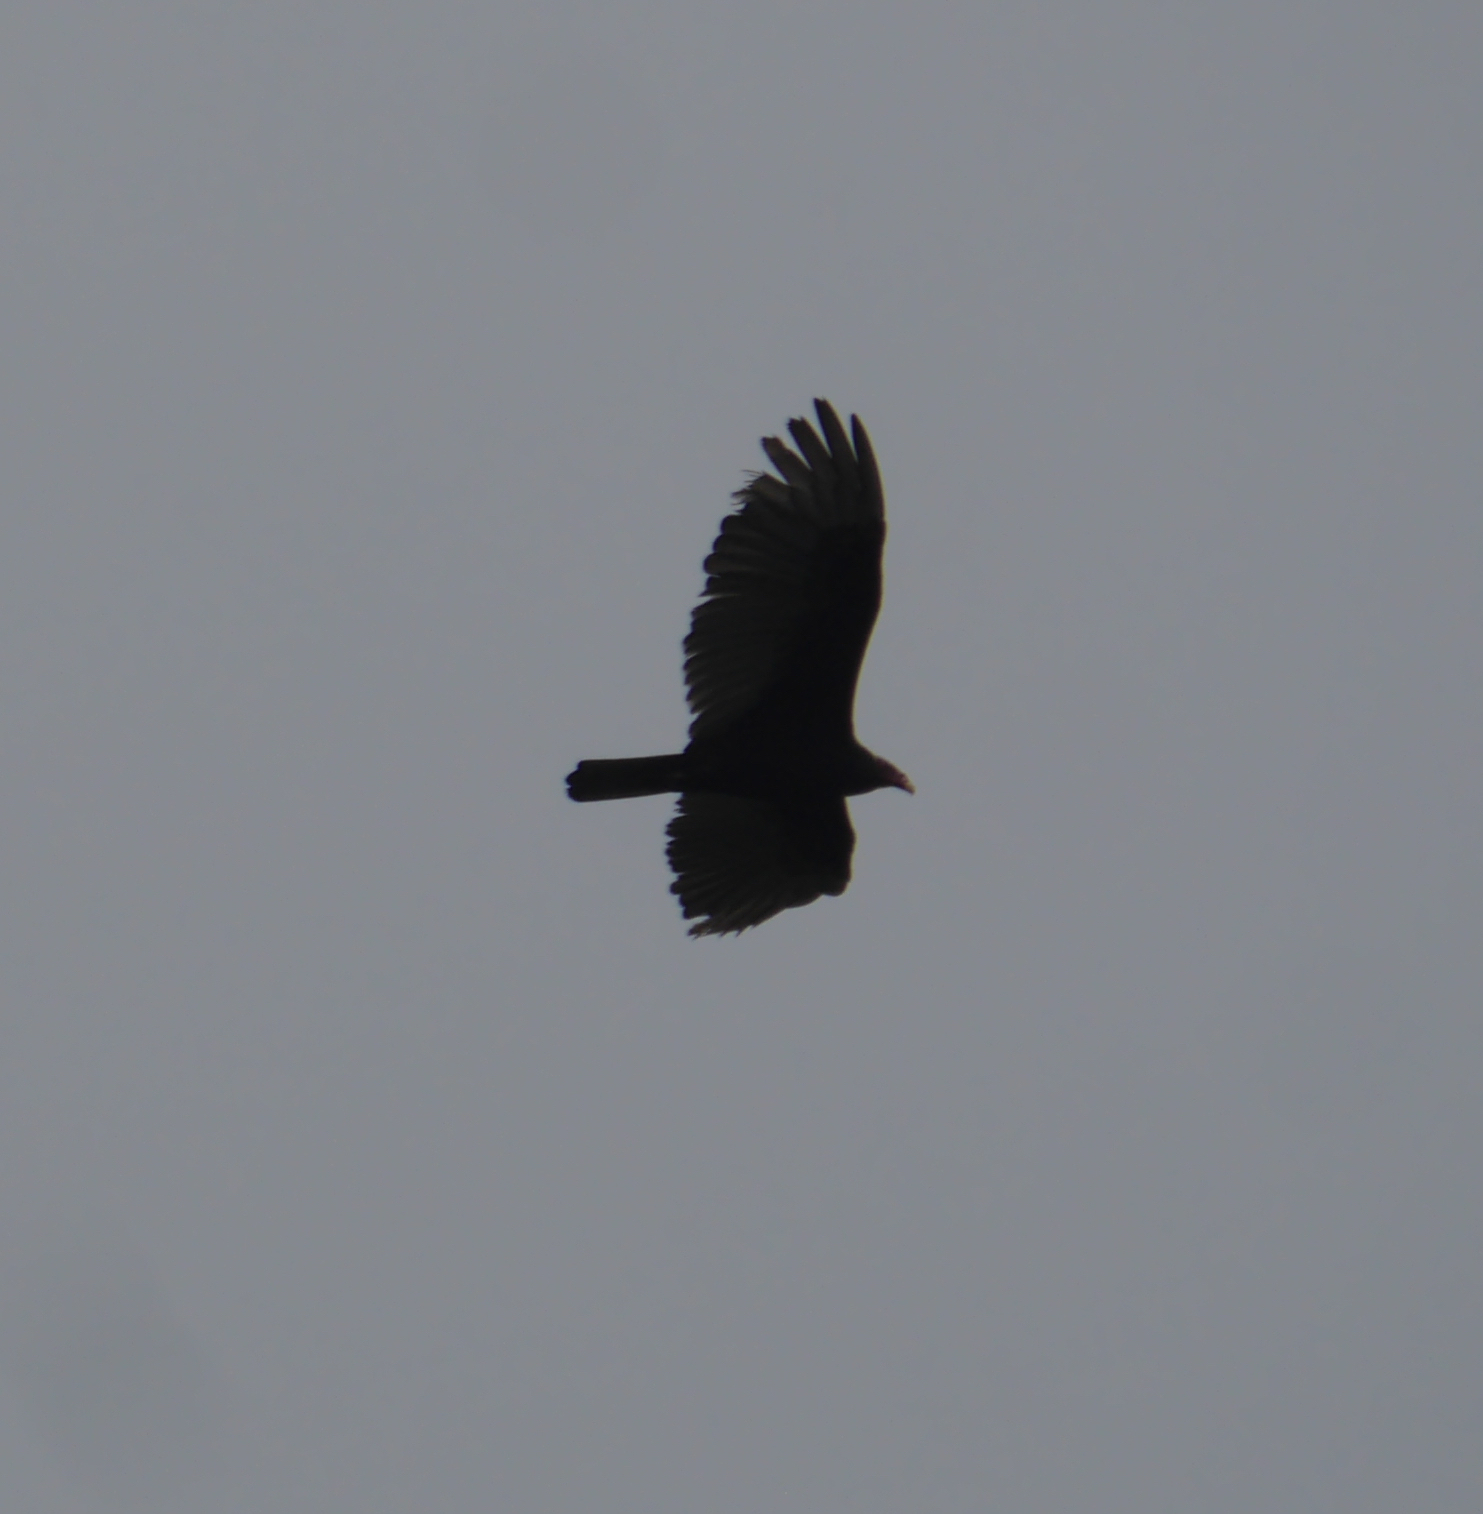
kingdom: Animalia
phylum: Chordata
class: Aves
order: Accipitriformes
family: Cathartidae
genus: Cathartes
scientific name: Cathartes aura
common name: Turkey vulture
